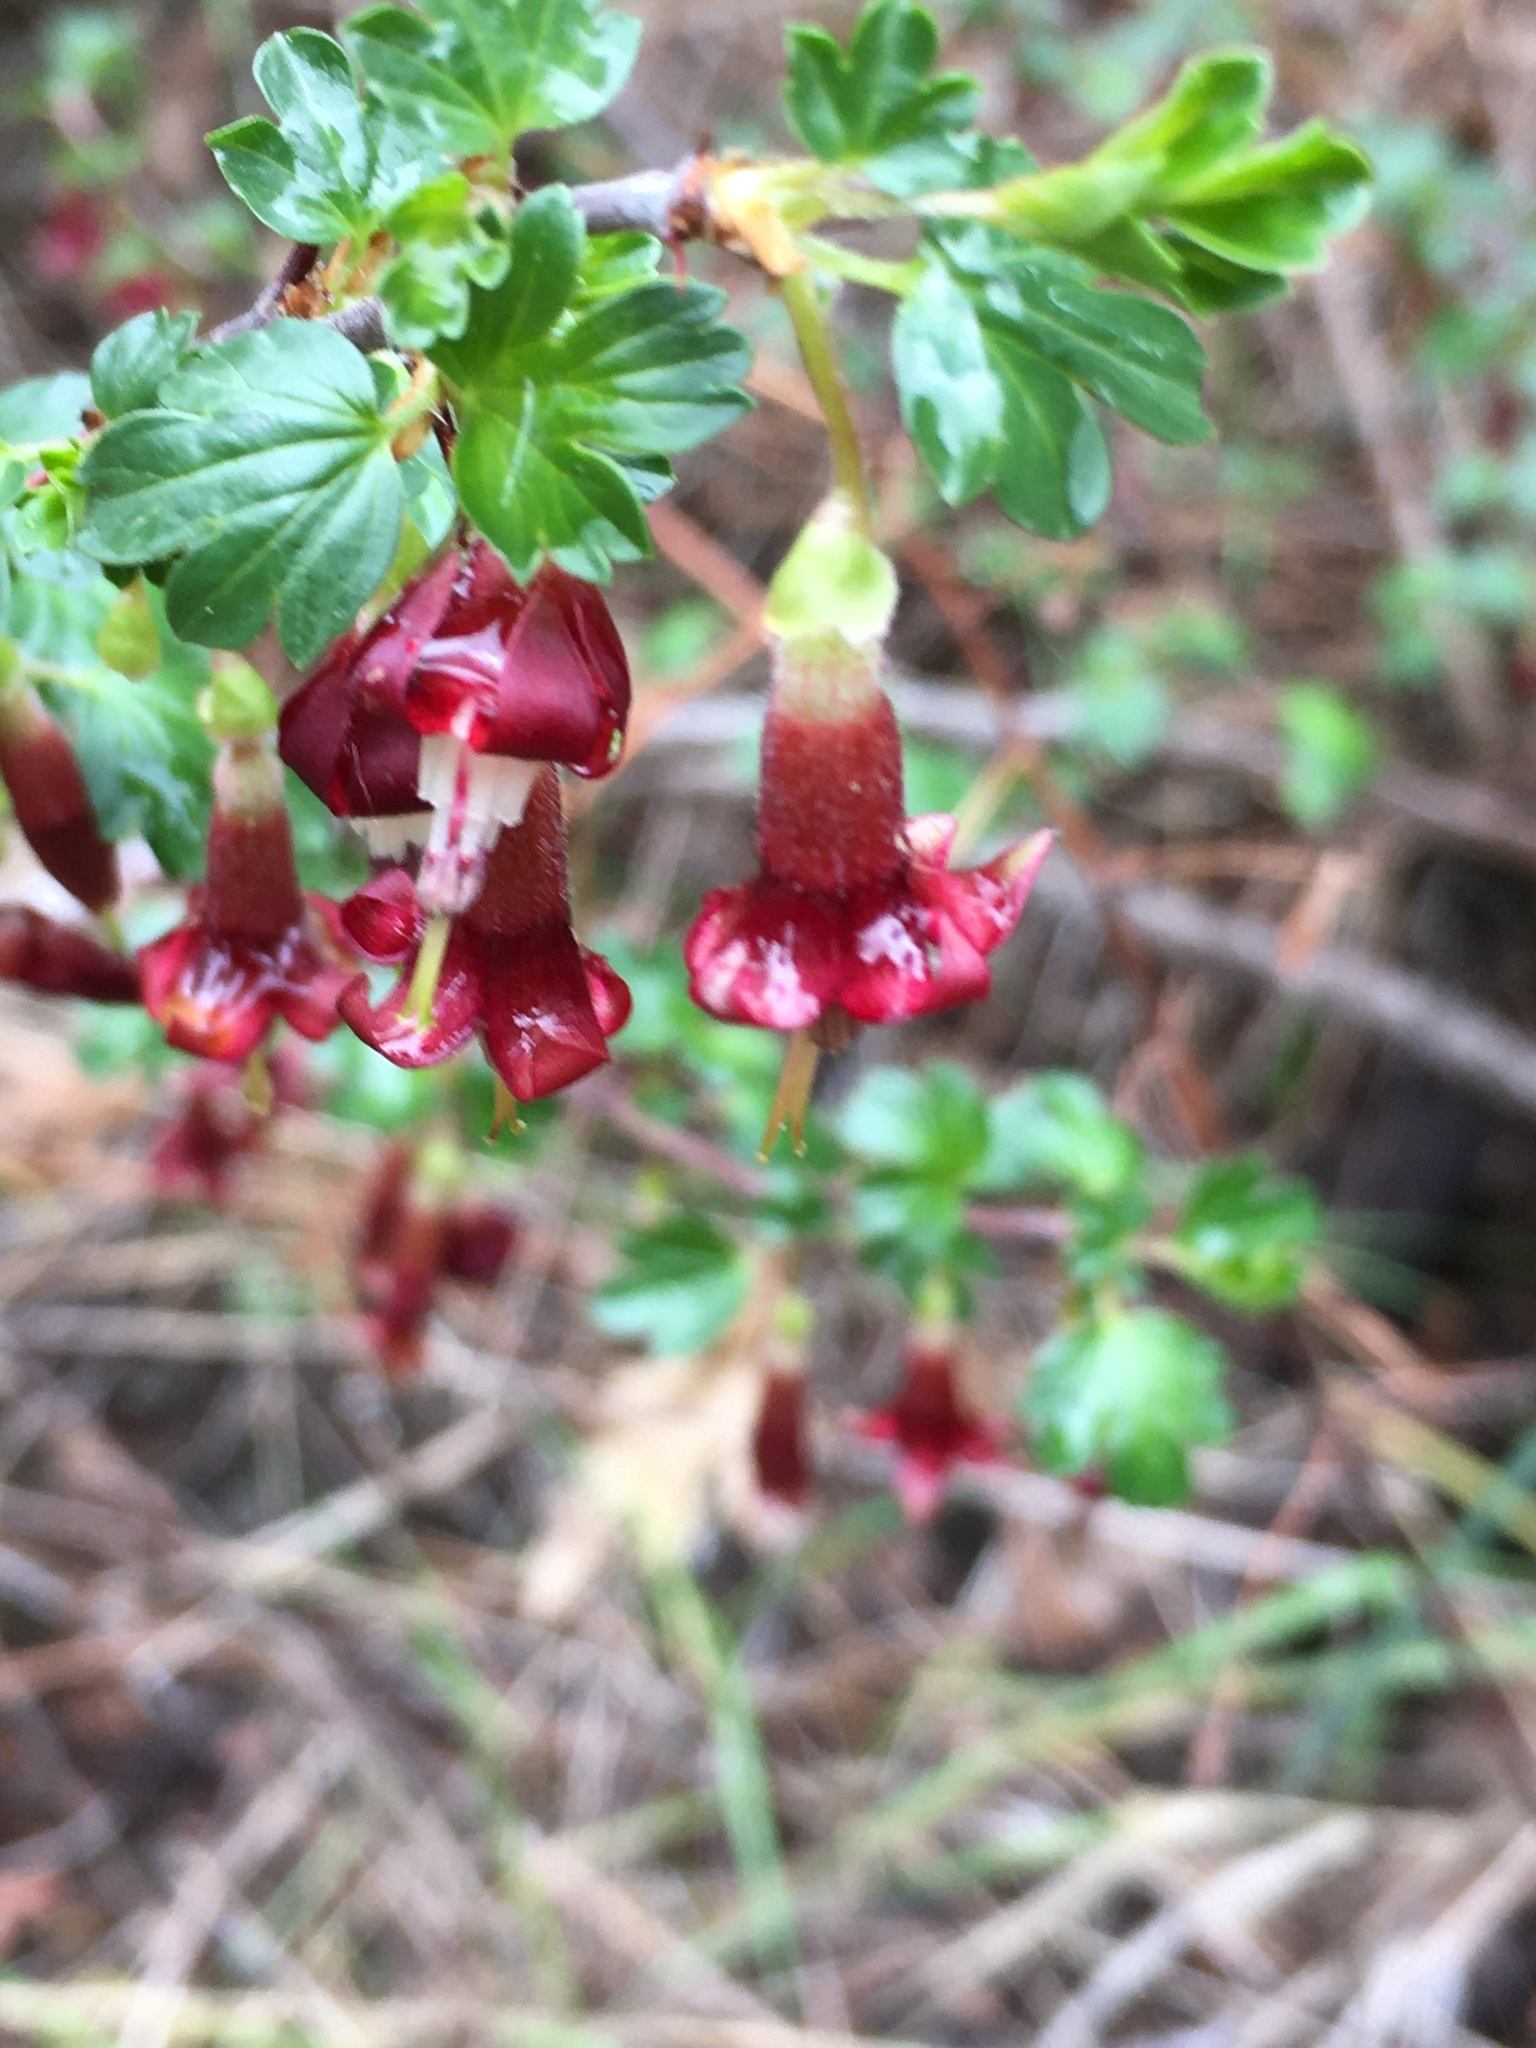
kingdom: Plantae
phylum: Tracheophyta
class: Magnoliopsida
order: Saxifragales
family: Grossulariaceae
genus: Ribes
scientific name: Ribes roezlii
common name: Sierra gooseberry
